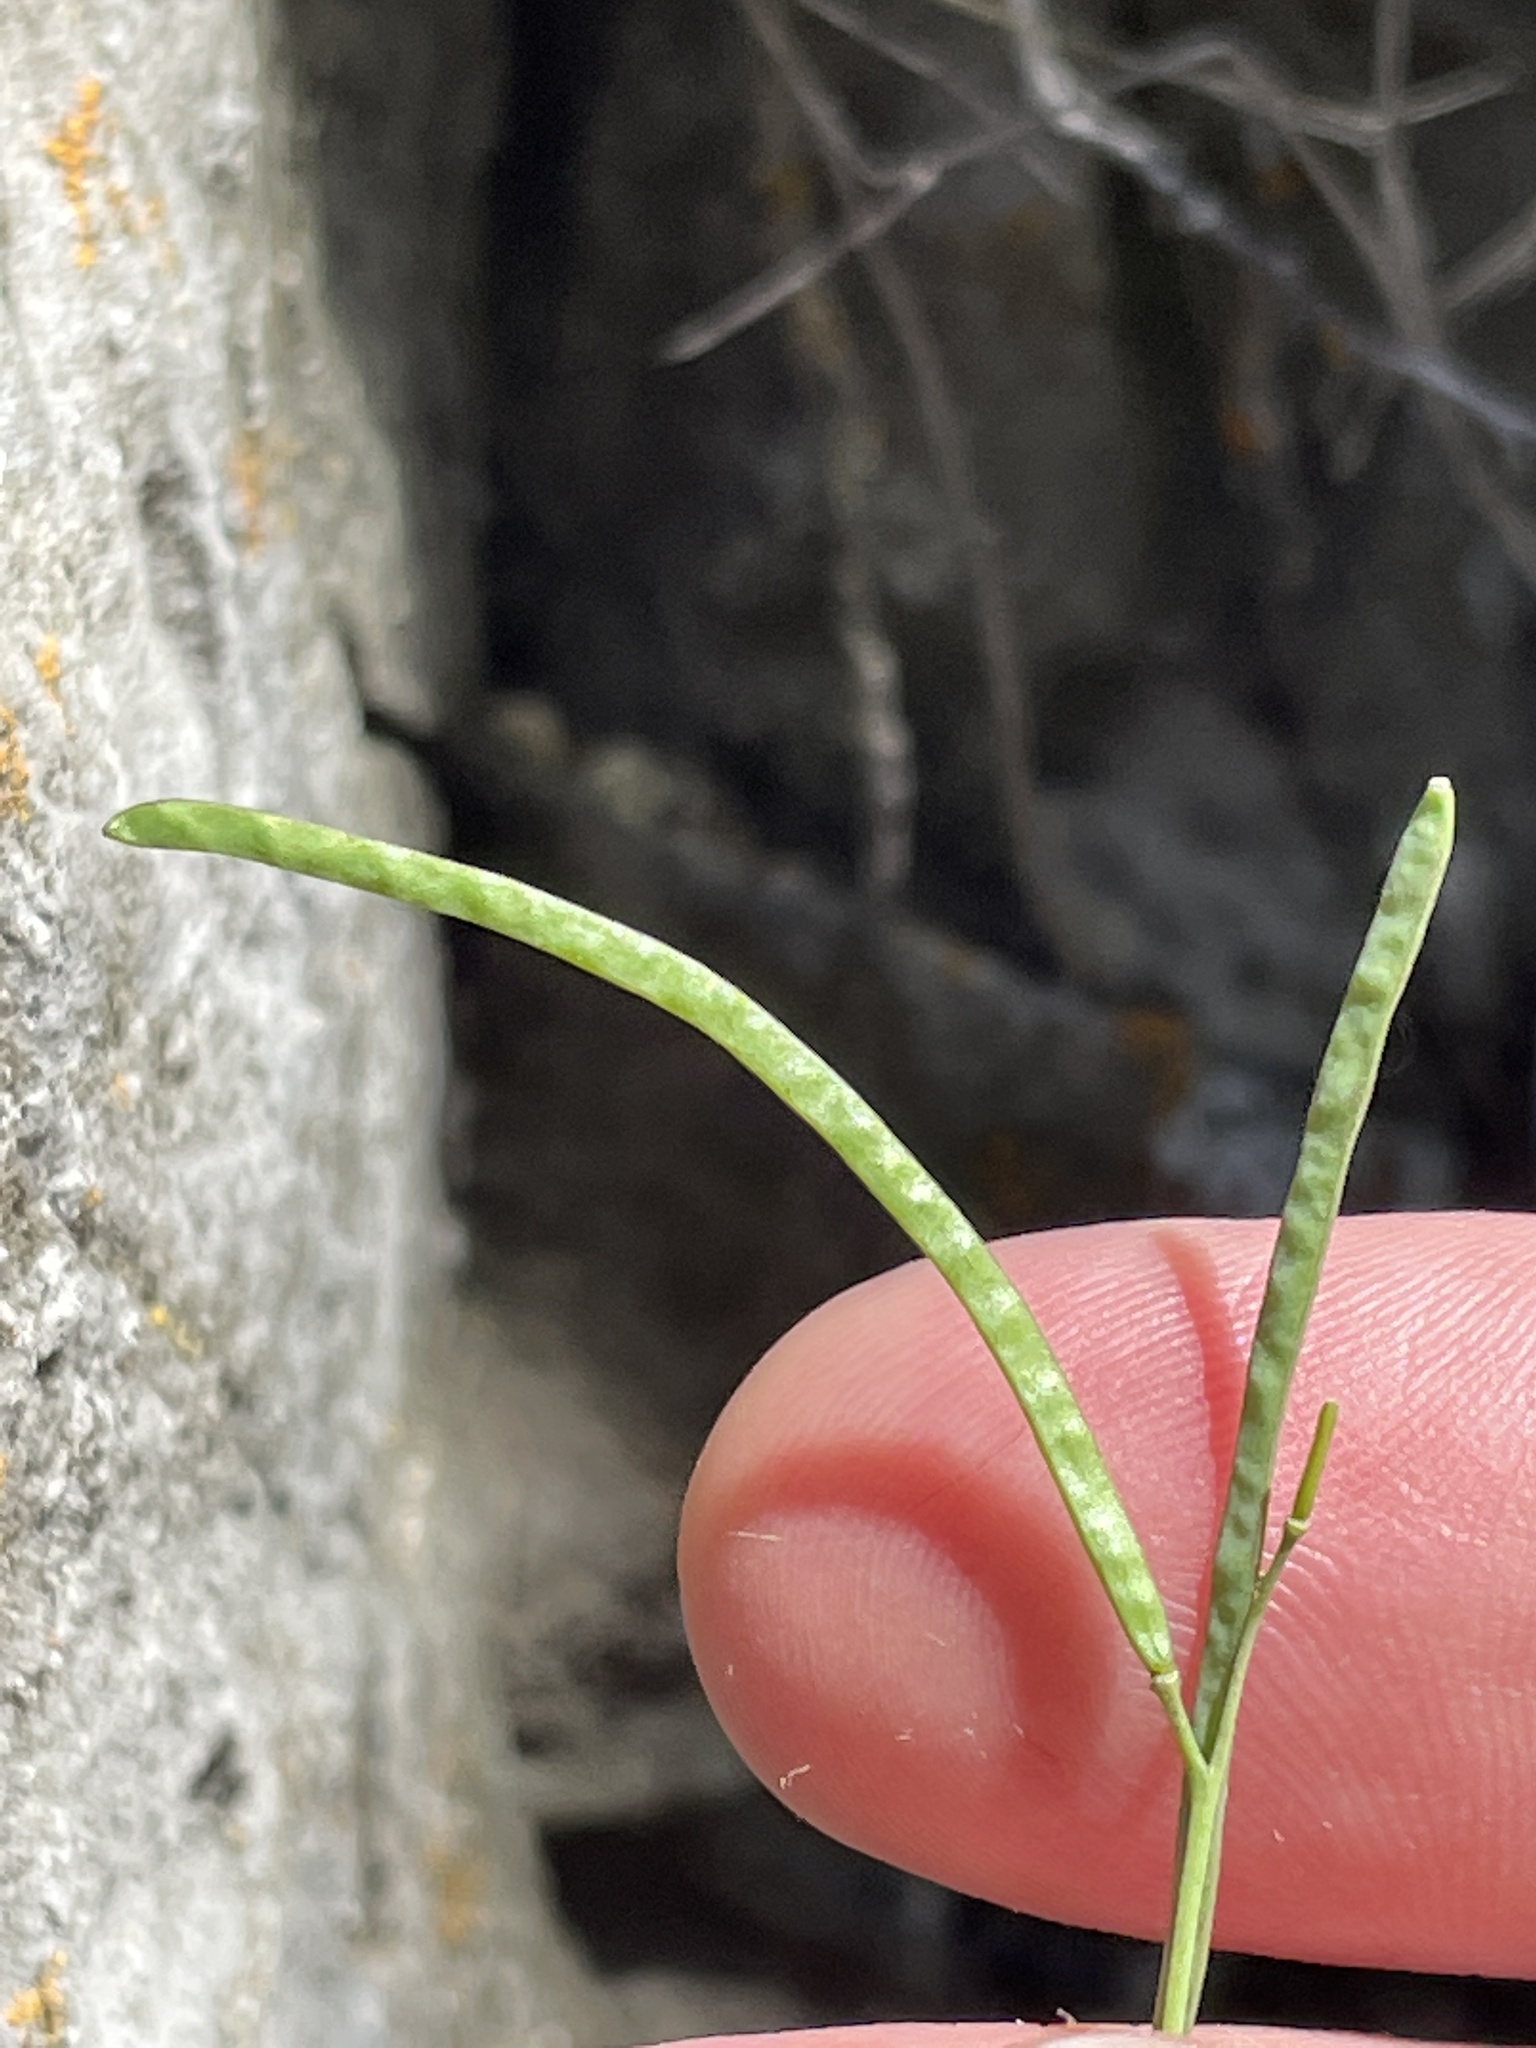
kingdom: Plantae
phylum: Tracheophyta
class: Magnoliopsida
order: Brassicales
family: Brassicaceae
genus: Boechera
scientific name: Boechera microphylla
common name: Crevice suncress
